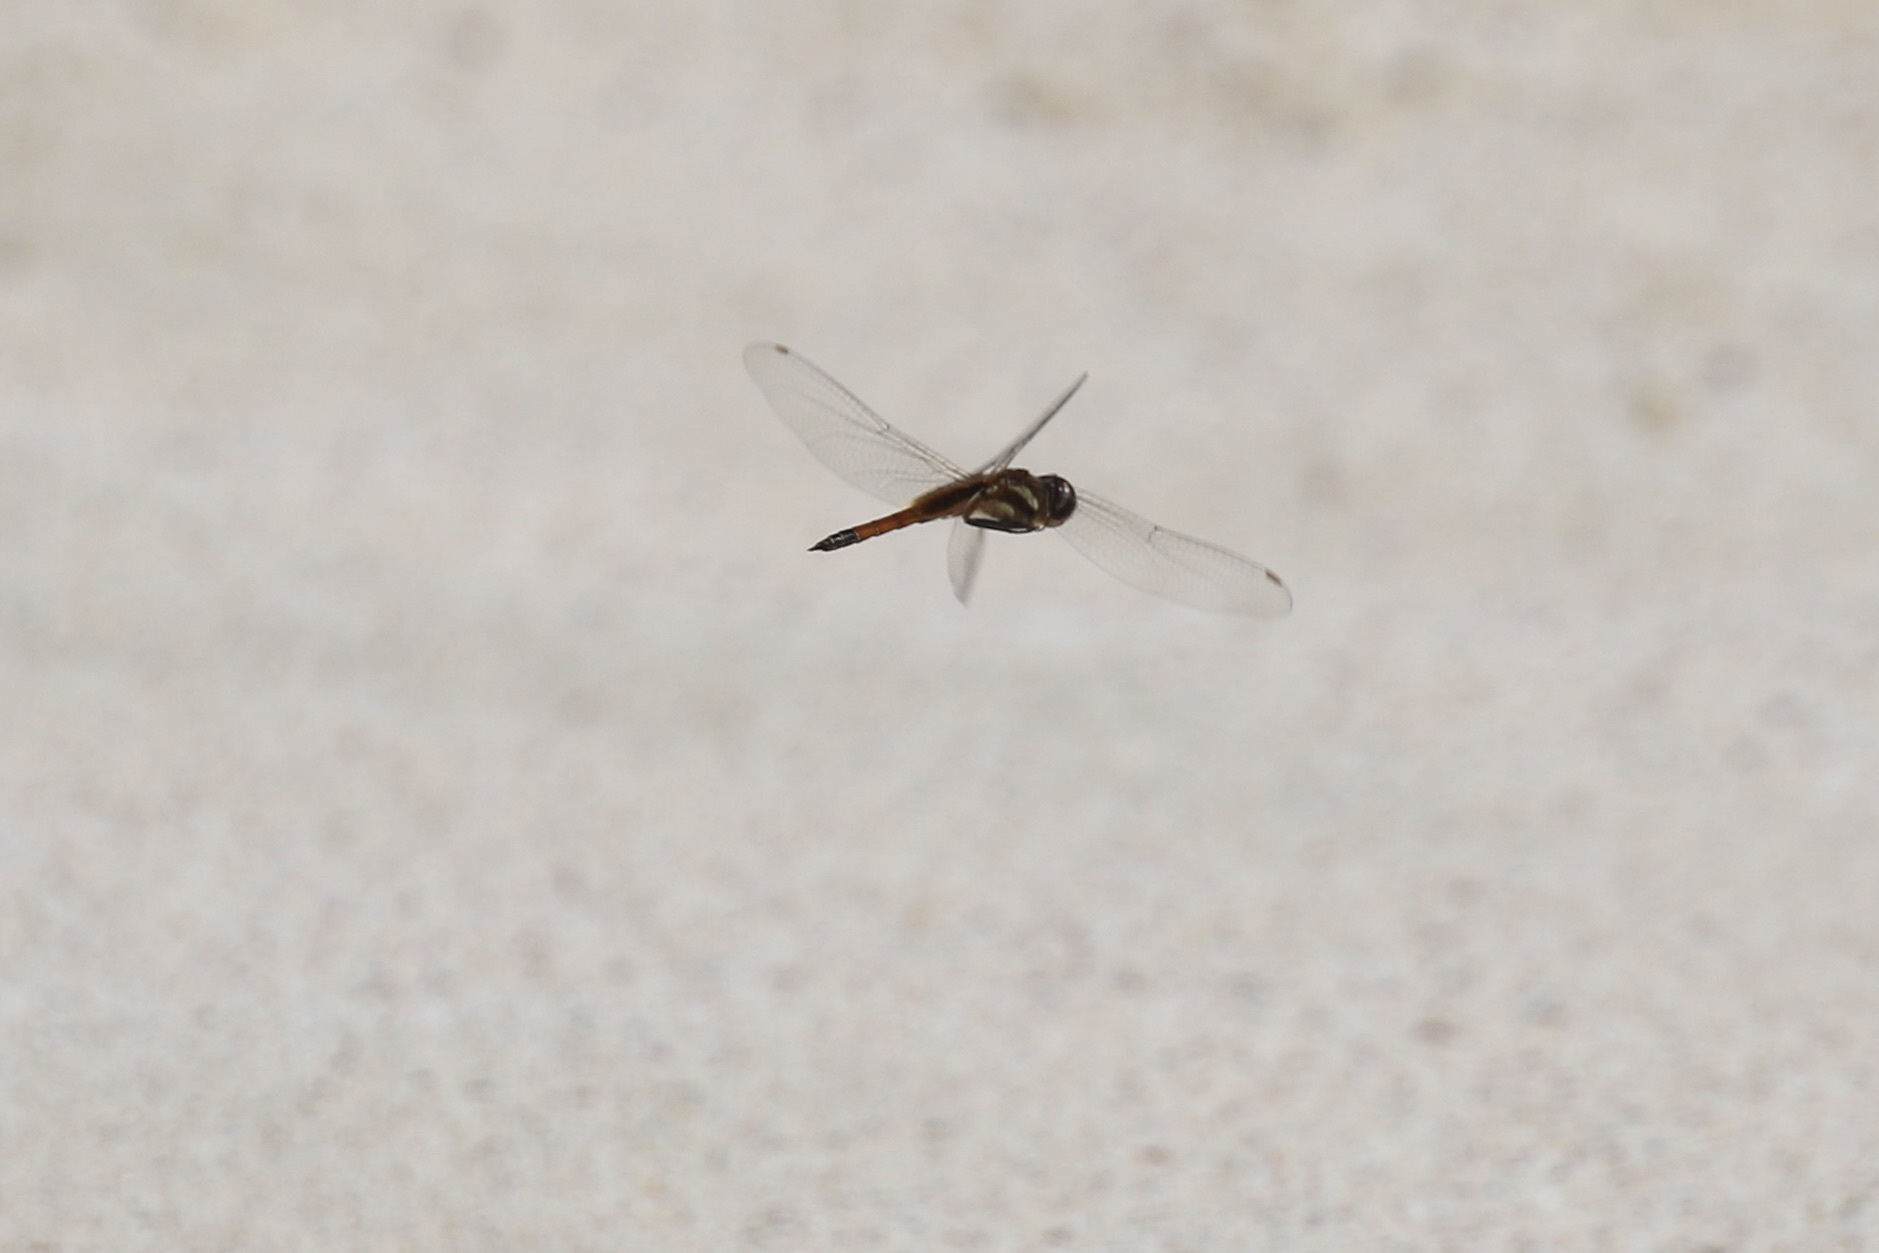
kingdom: Animalia
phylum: Arthropoda
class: Insecta
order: Odonata
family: Libellulidae
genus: Tramea
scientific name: Tramea darwini
